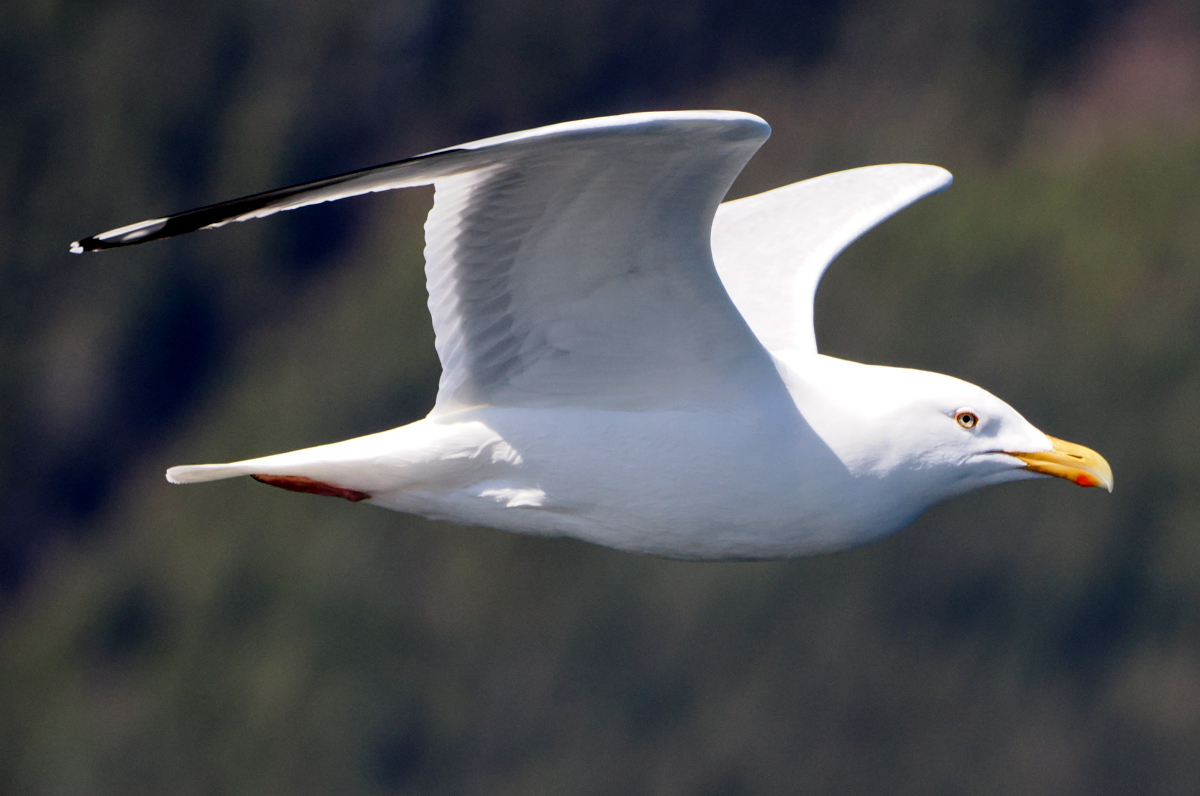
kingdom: Animalia
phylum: Chordata
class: Aves
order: Charadriiformes
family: Laridae
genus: Larus
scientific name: Larus argentatus
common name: Herring gull
